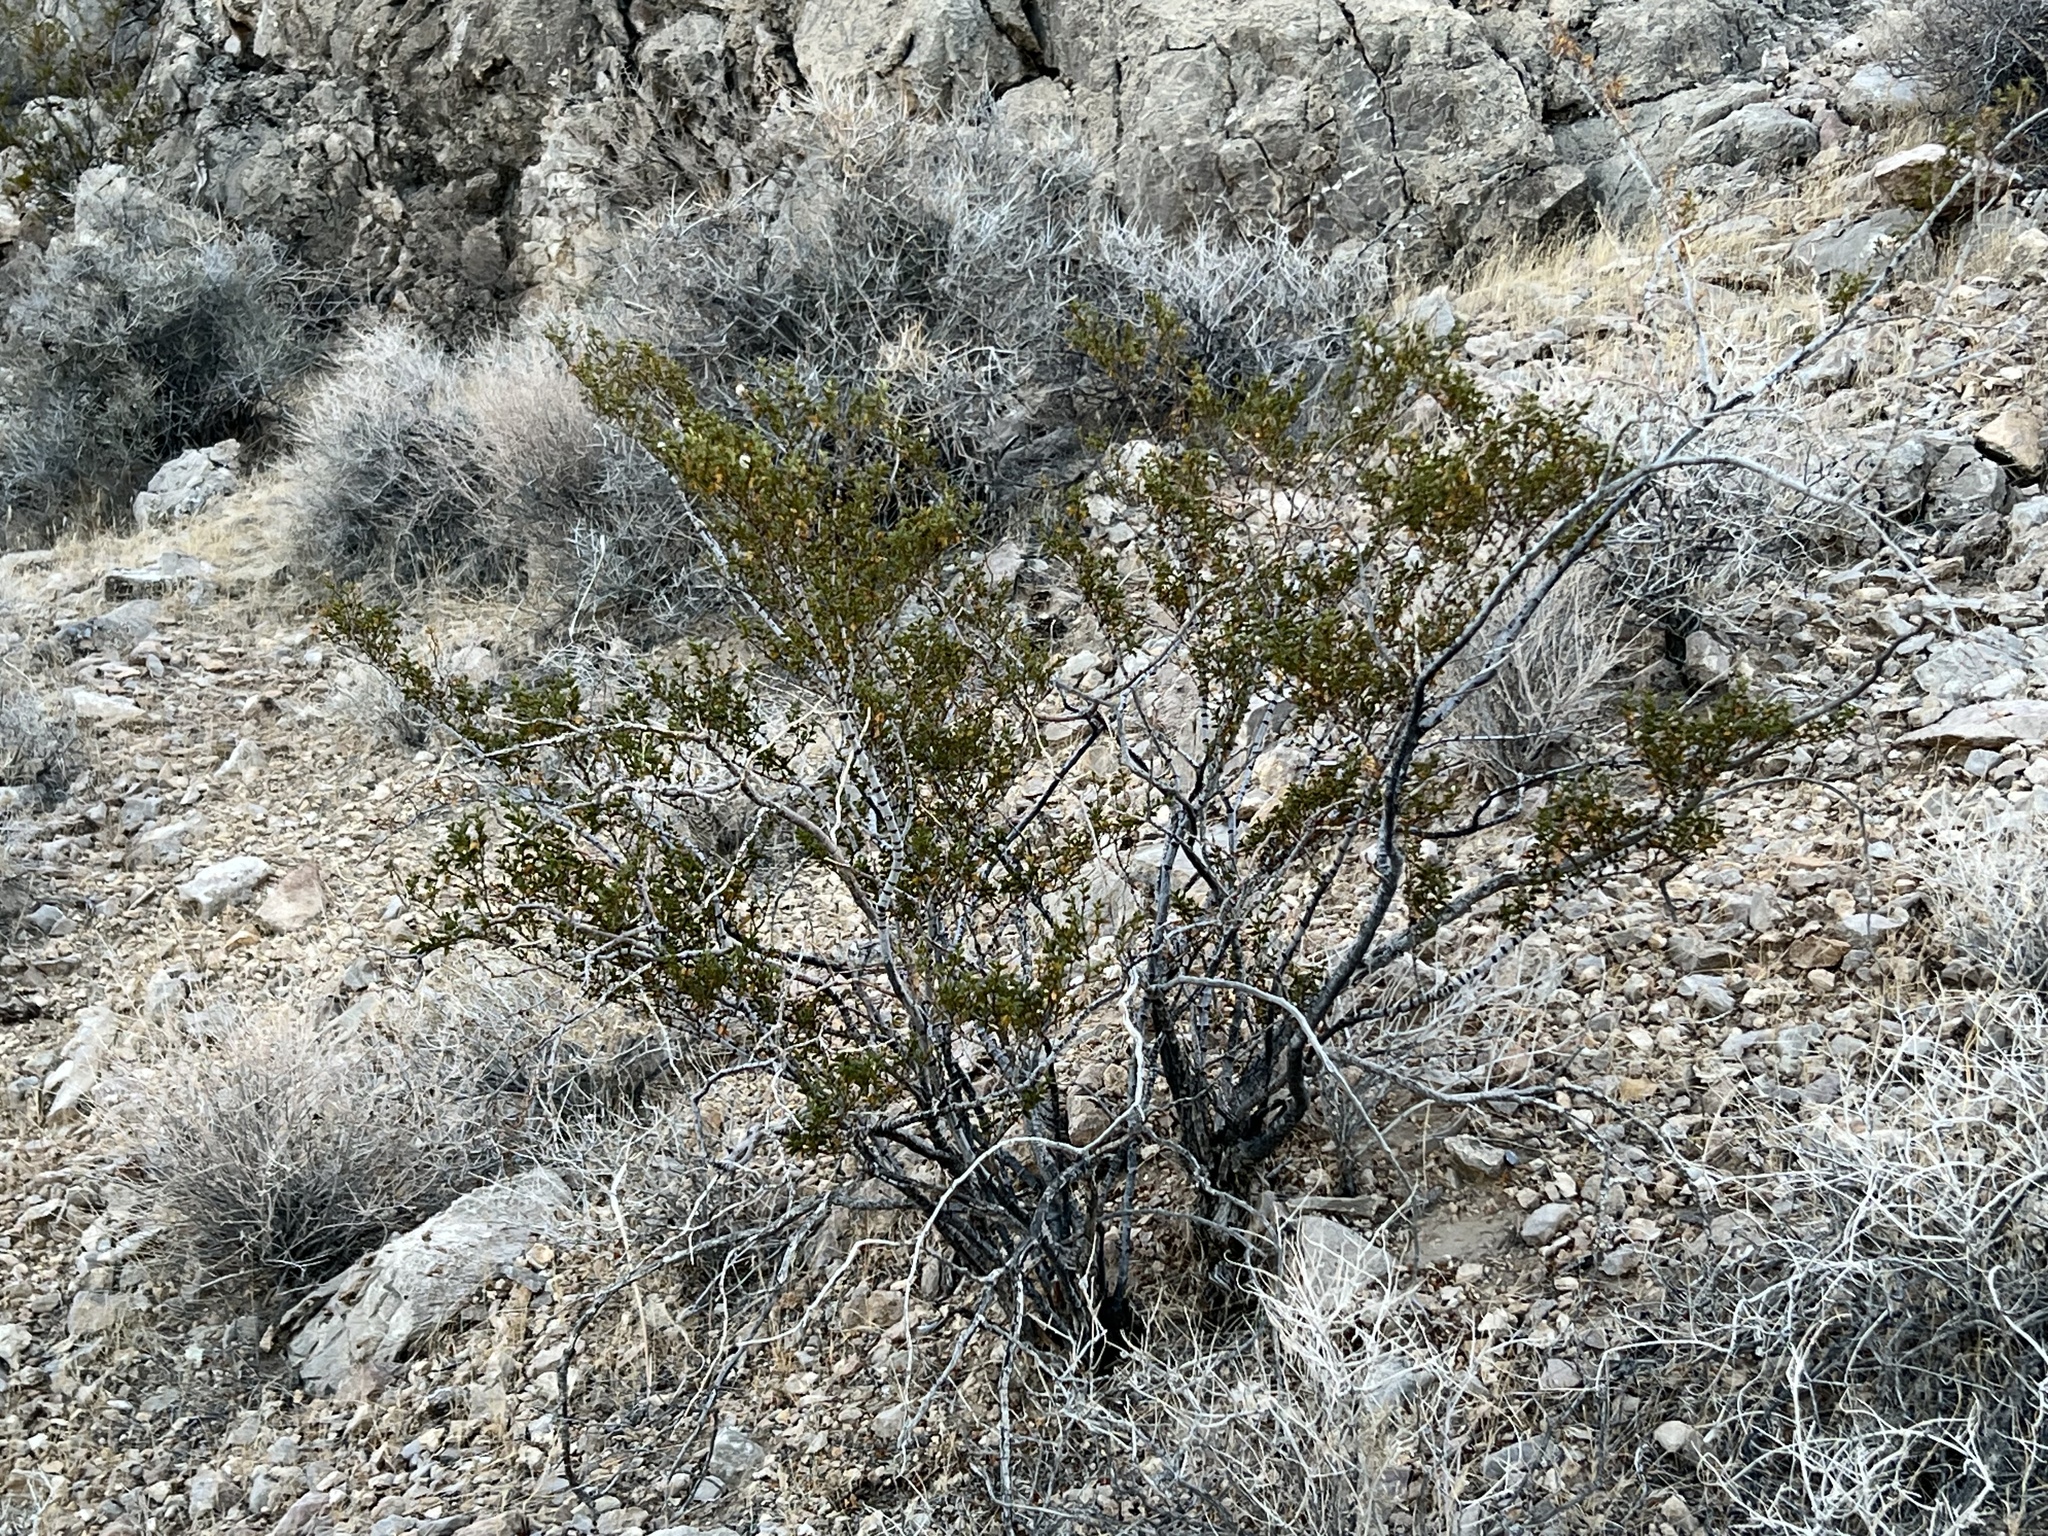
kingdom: Plantae
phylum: Tracheophyta
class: Magnoliopsida
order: Zygophyllales
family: Zygophyllaceae
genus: Larrea
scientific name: Larrea tridentata
